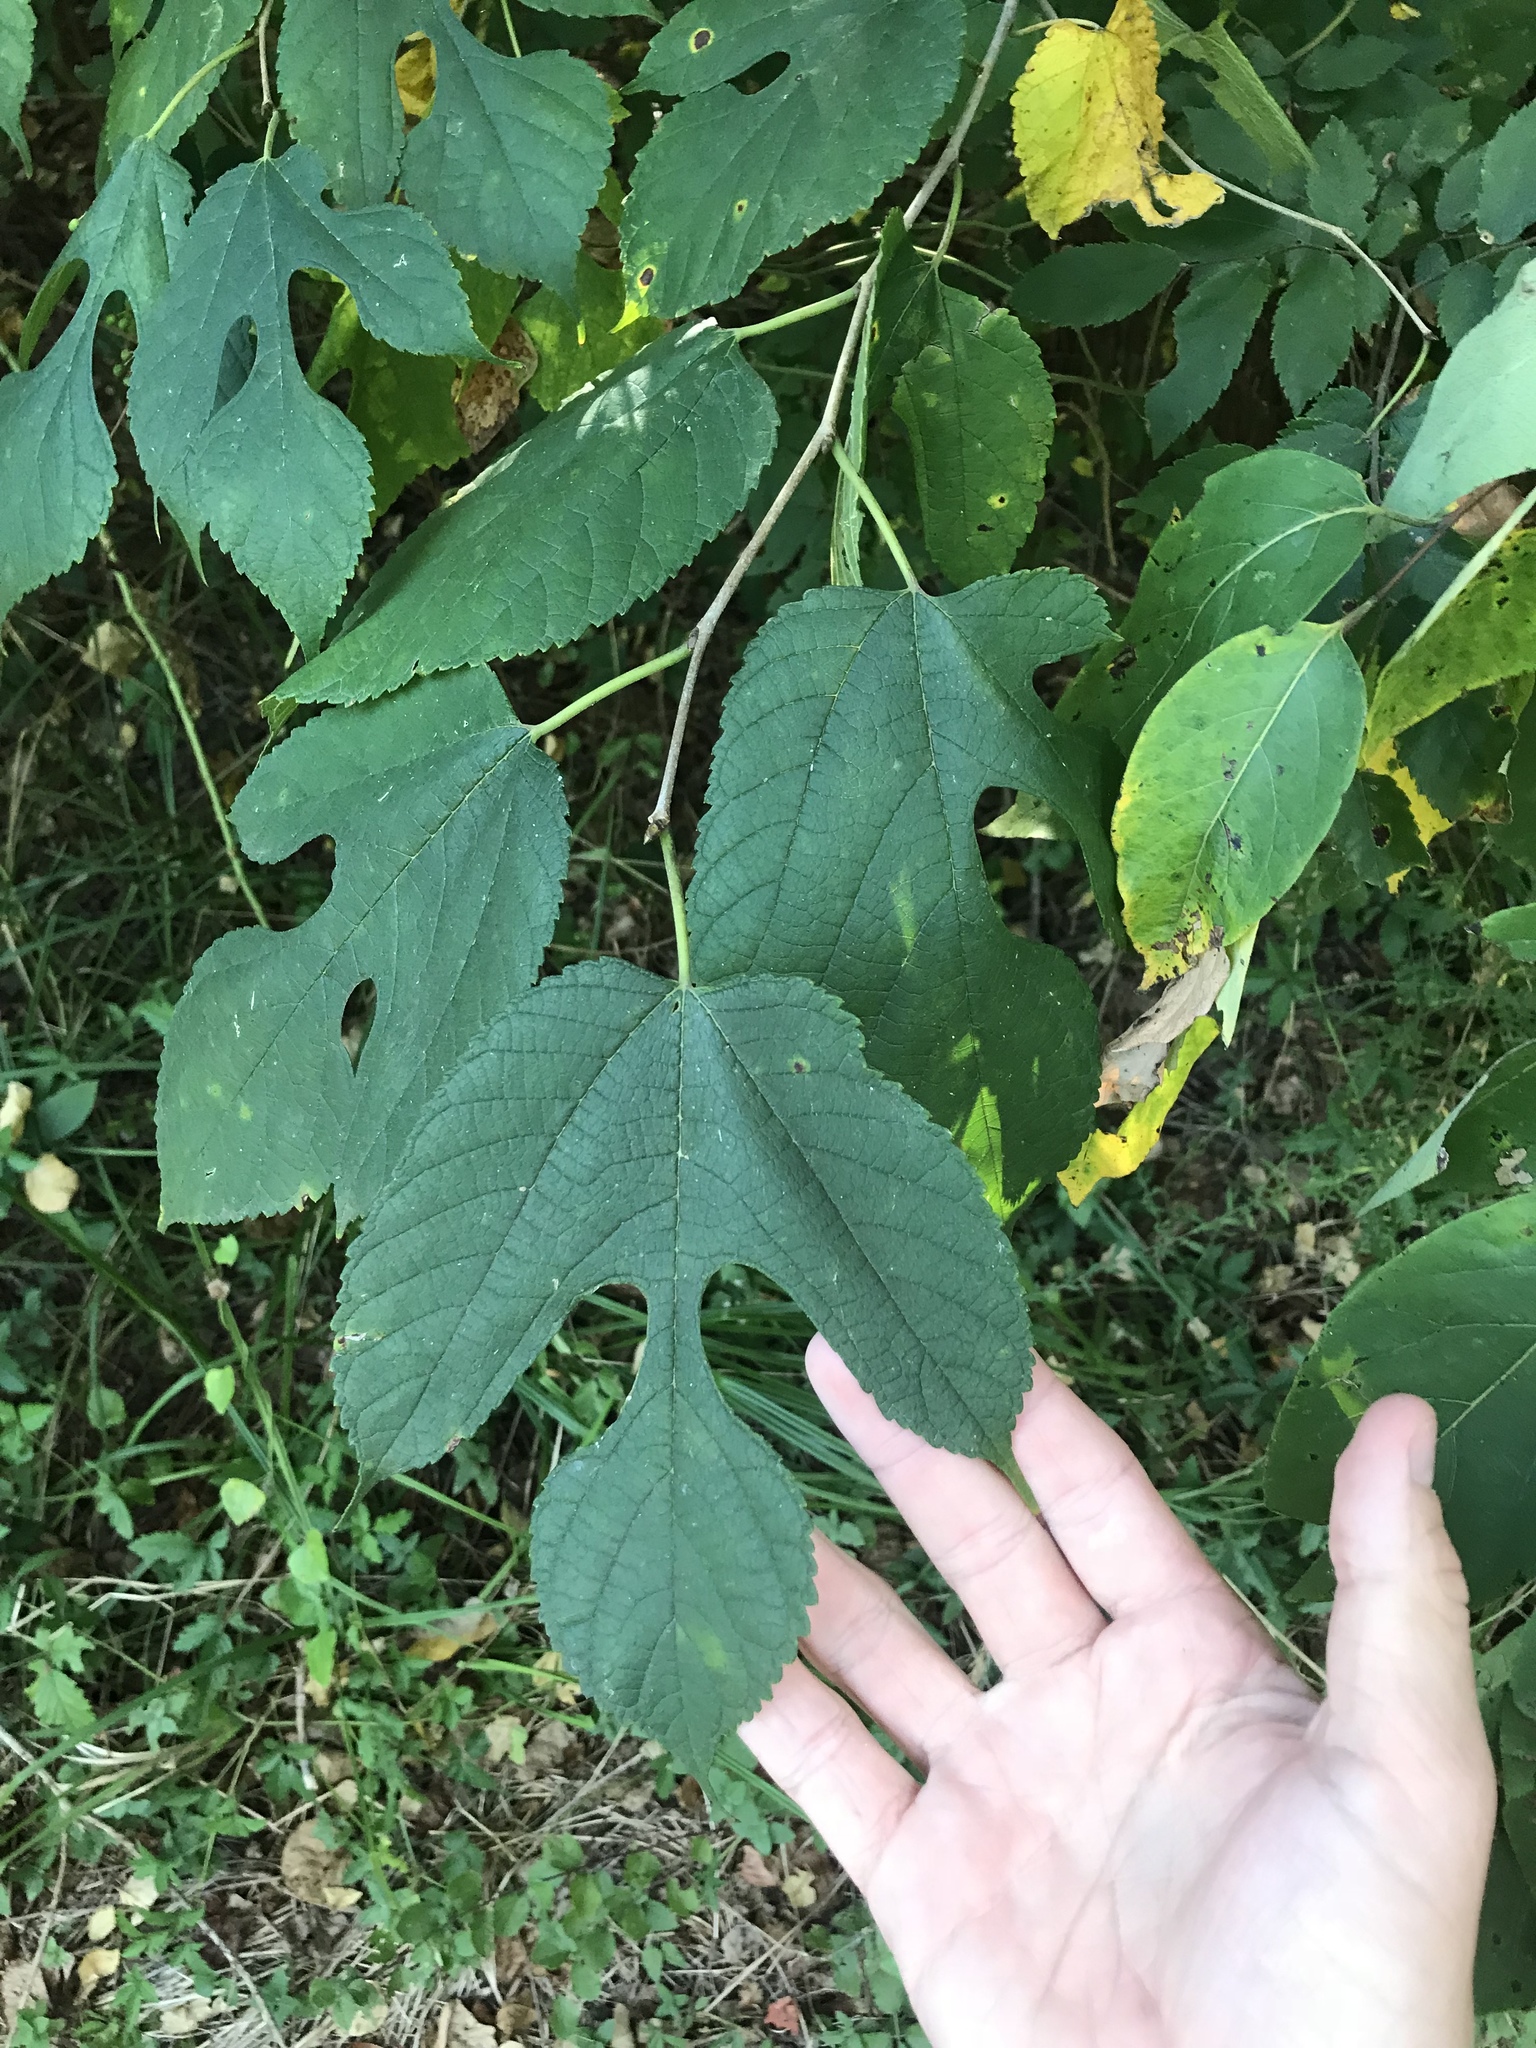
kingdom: Plantae
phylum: Tracheophyta
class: Magnoliopsida
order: Rosales
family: Moraceae
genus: Morus
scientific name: Morus rubra
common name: Red mulberry
